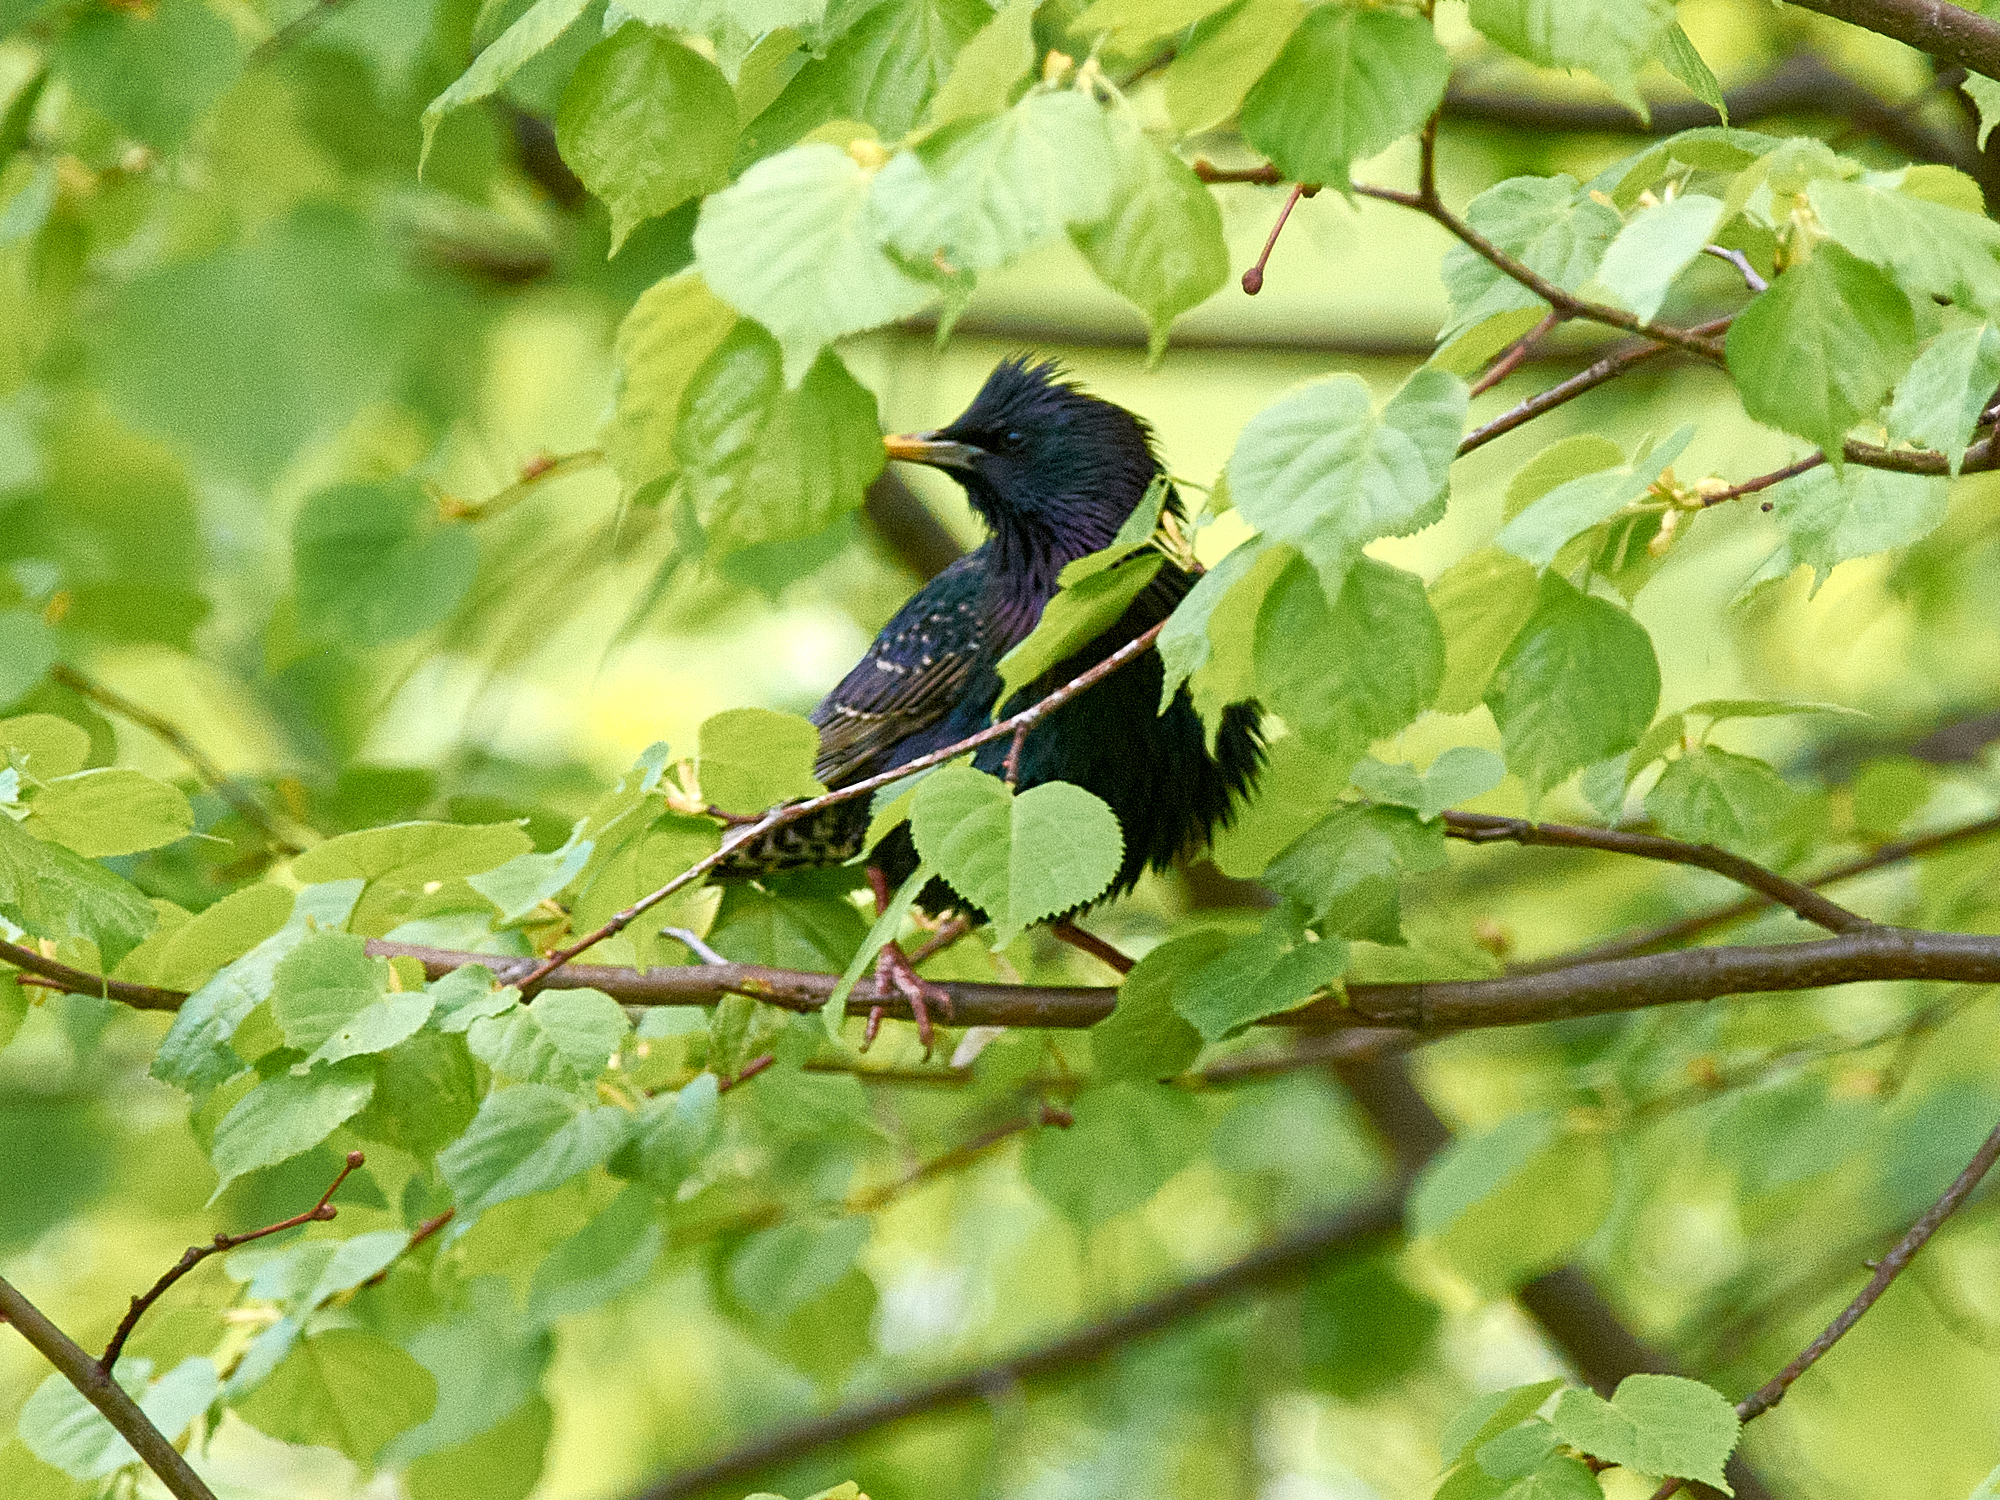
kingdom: Animalia
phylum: Chordata
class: Aves
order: Passeriformes
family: Sturnidae
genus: Sturnus
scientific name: Sturnus vulgaris
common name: Common starling
